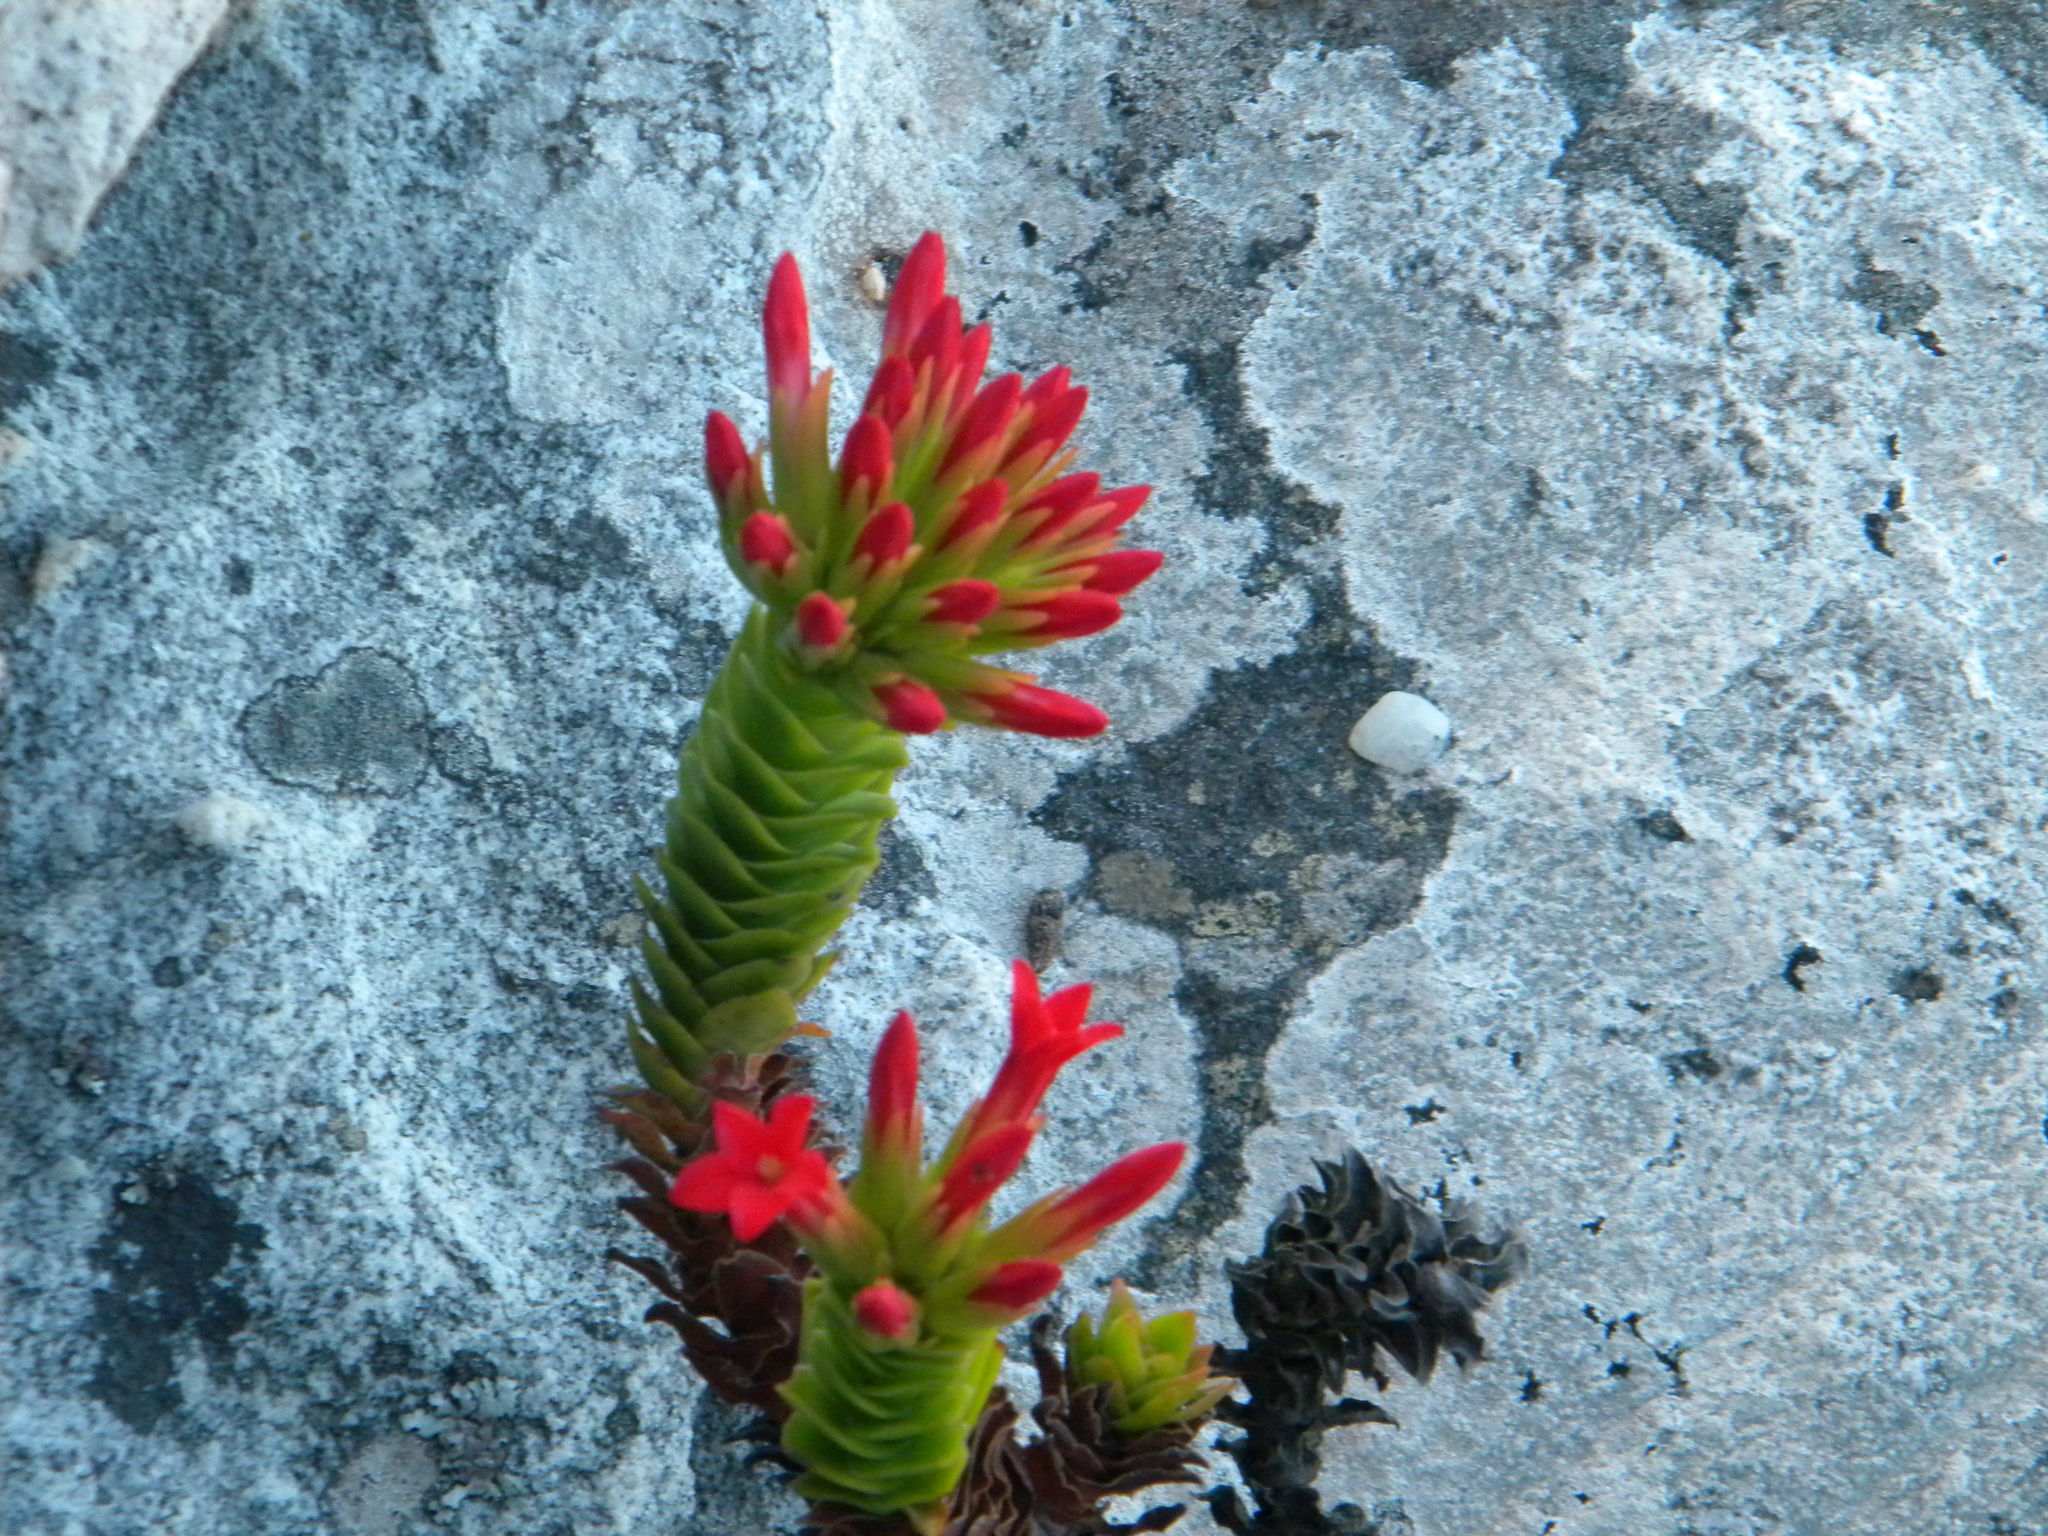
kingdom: Plantae
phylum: Tracheophyta
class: Magnoliopsida
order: Saxifragales
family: Crassulaceae
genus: Crassula
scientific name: Crassula coccinea
